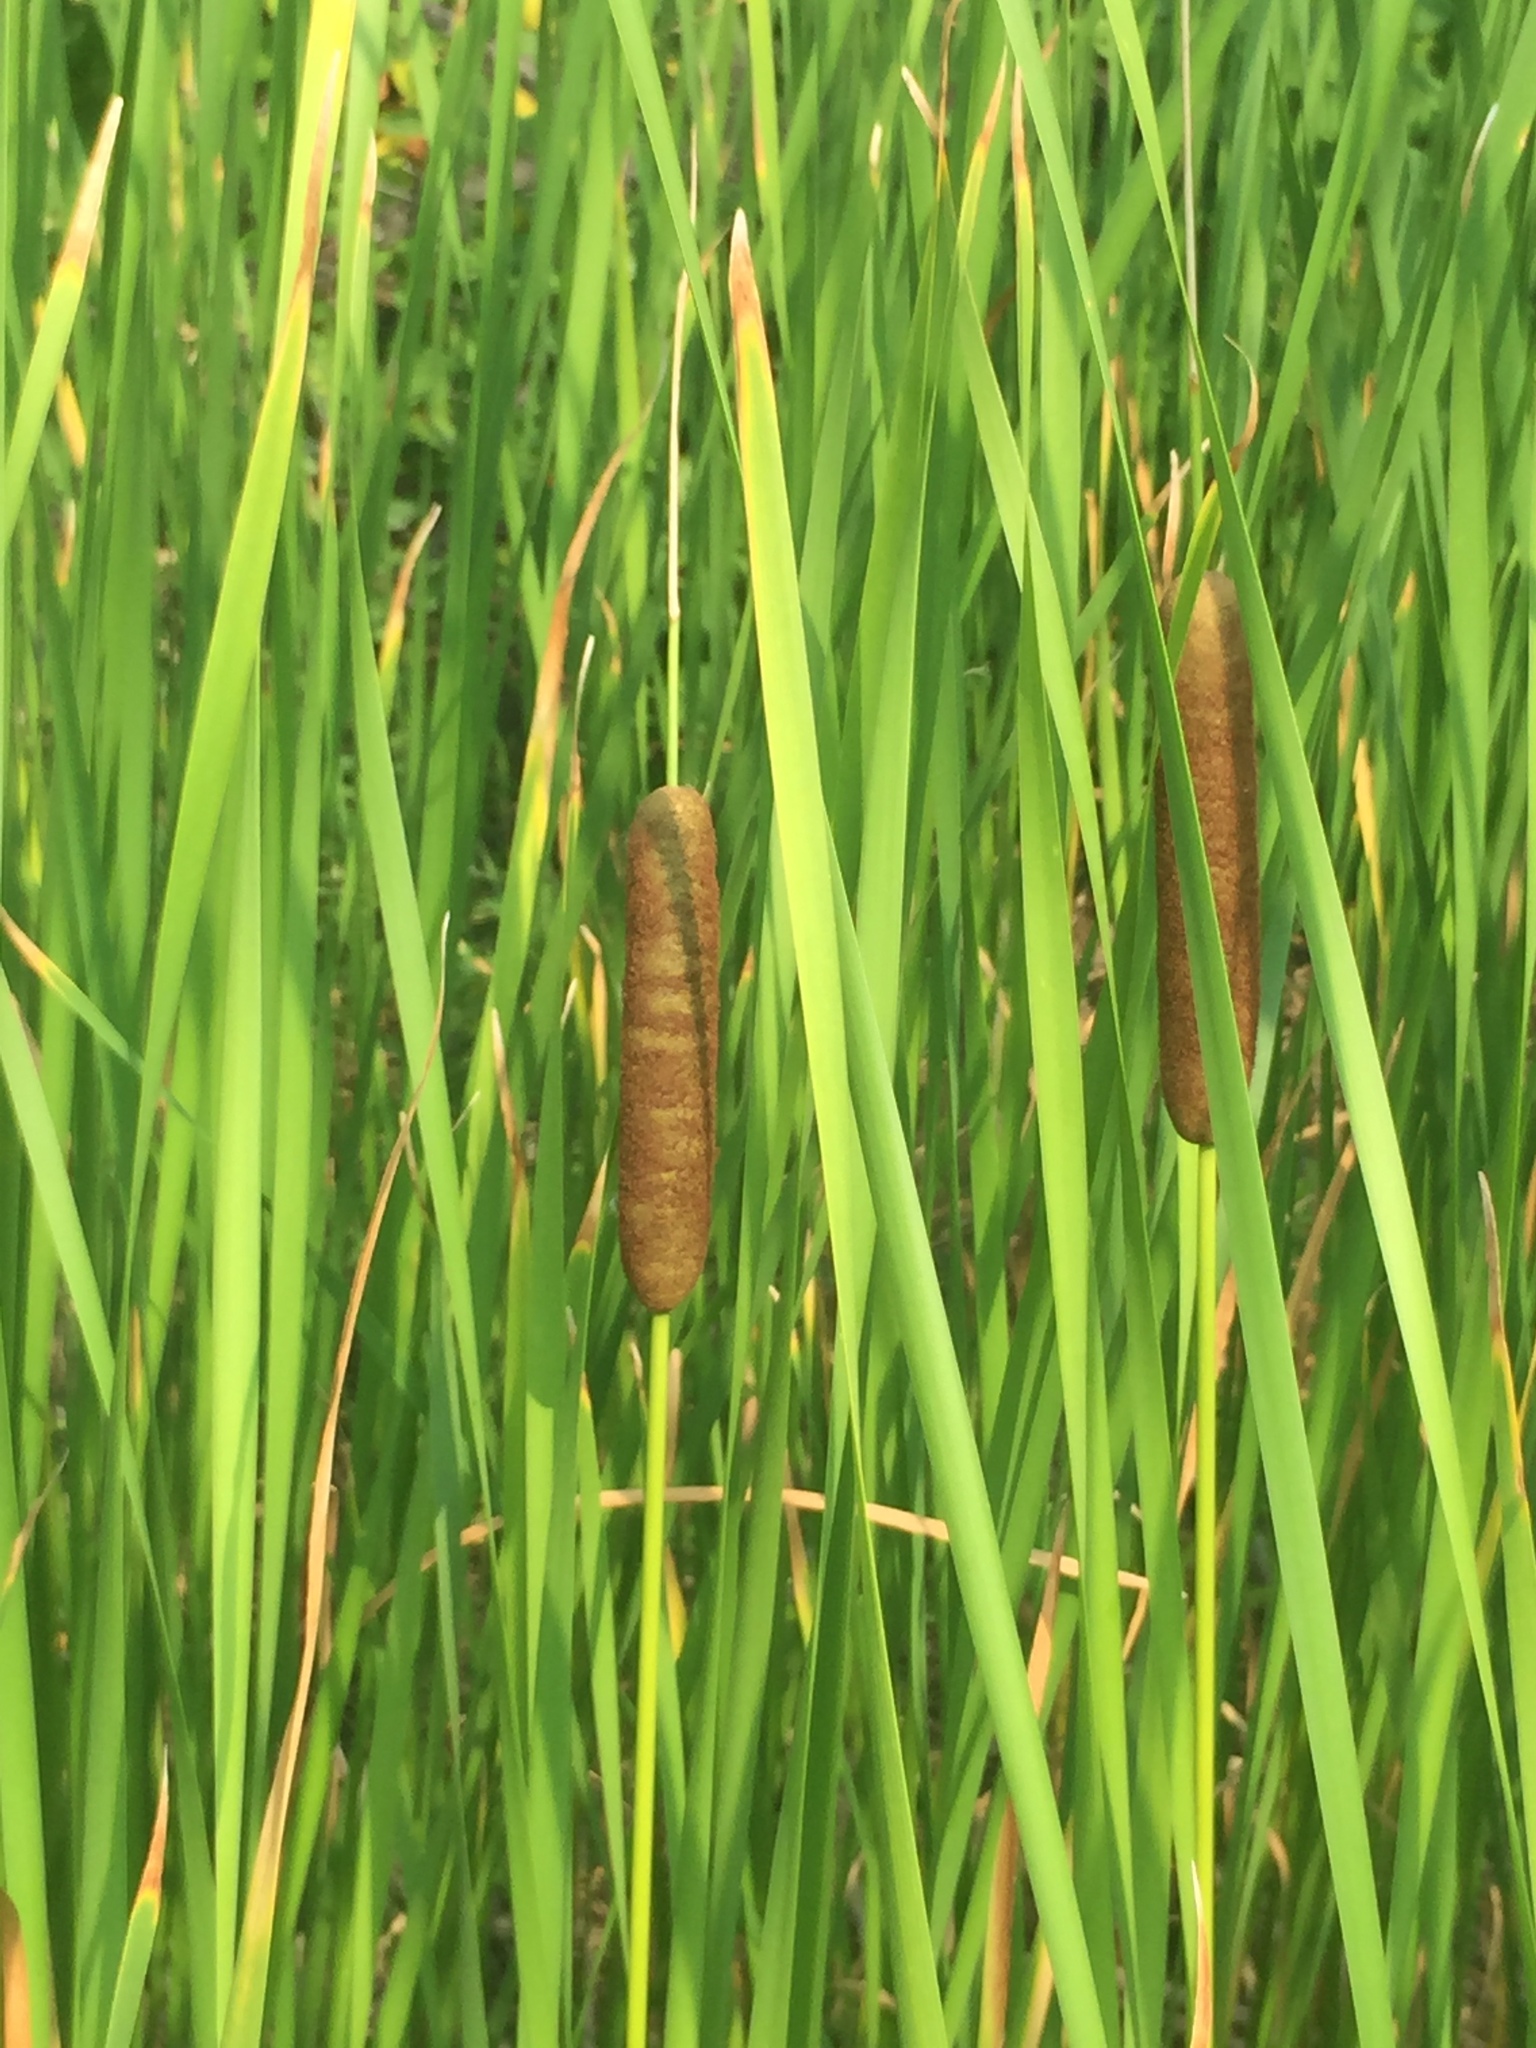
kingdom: Plantae
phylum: Tracheophyta
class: Liliopsida
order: Poales
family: Typhaceae
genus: Typha
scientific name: Typha angustifolia
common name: Lesser bulrush
